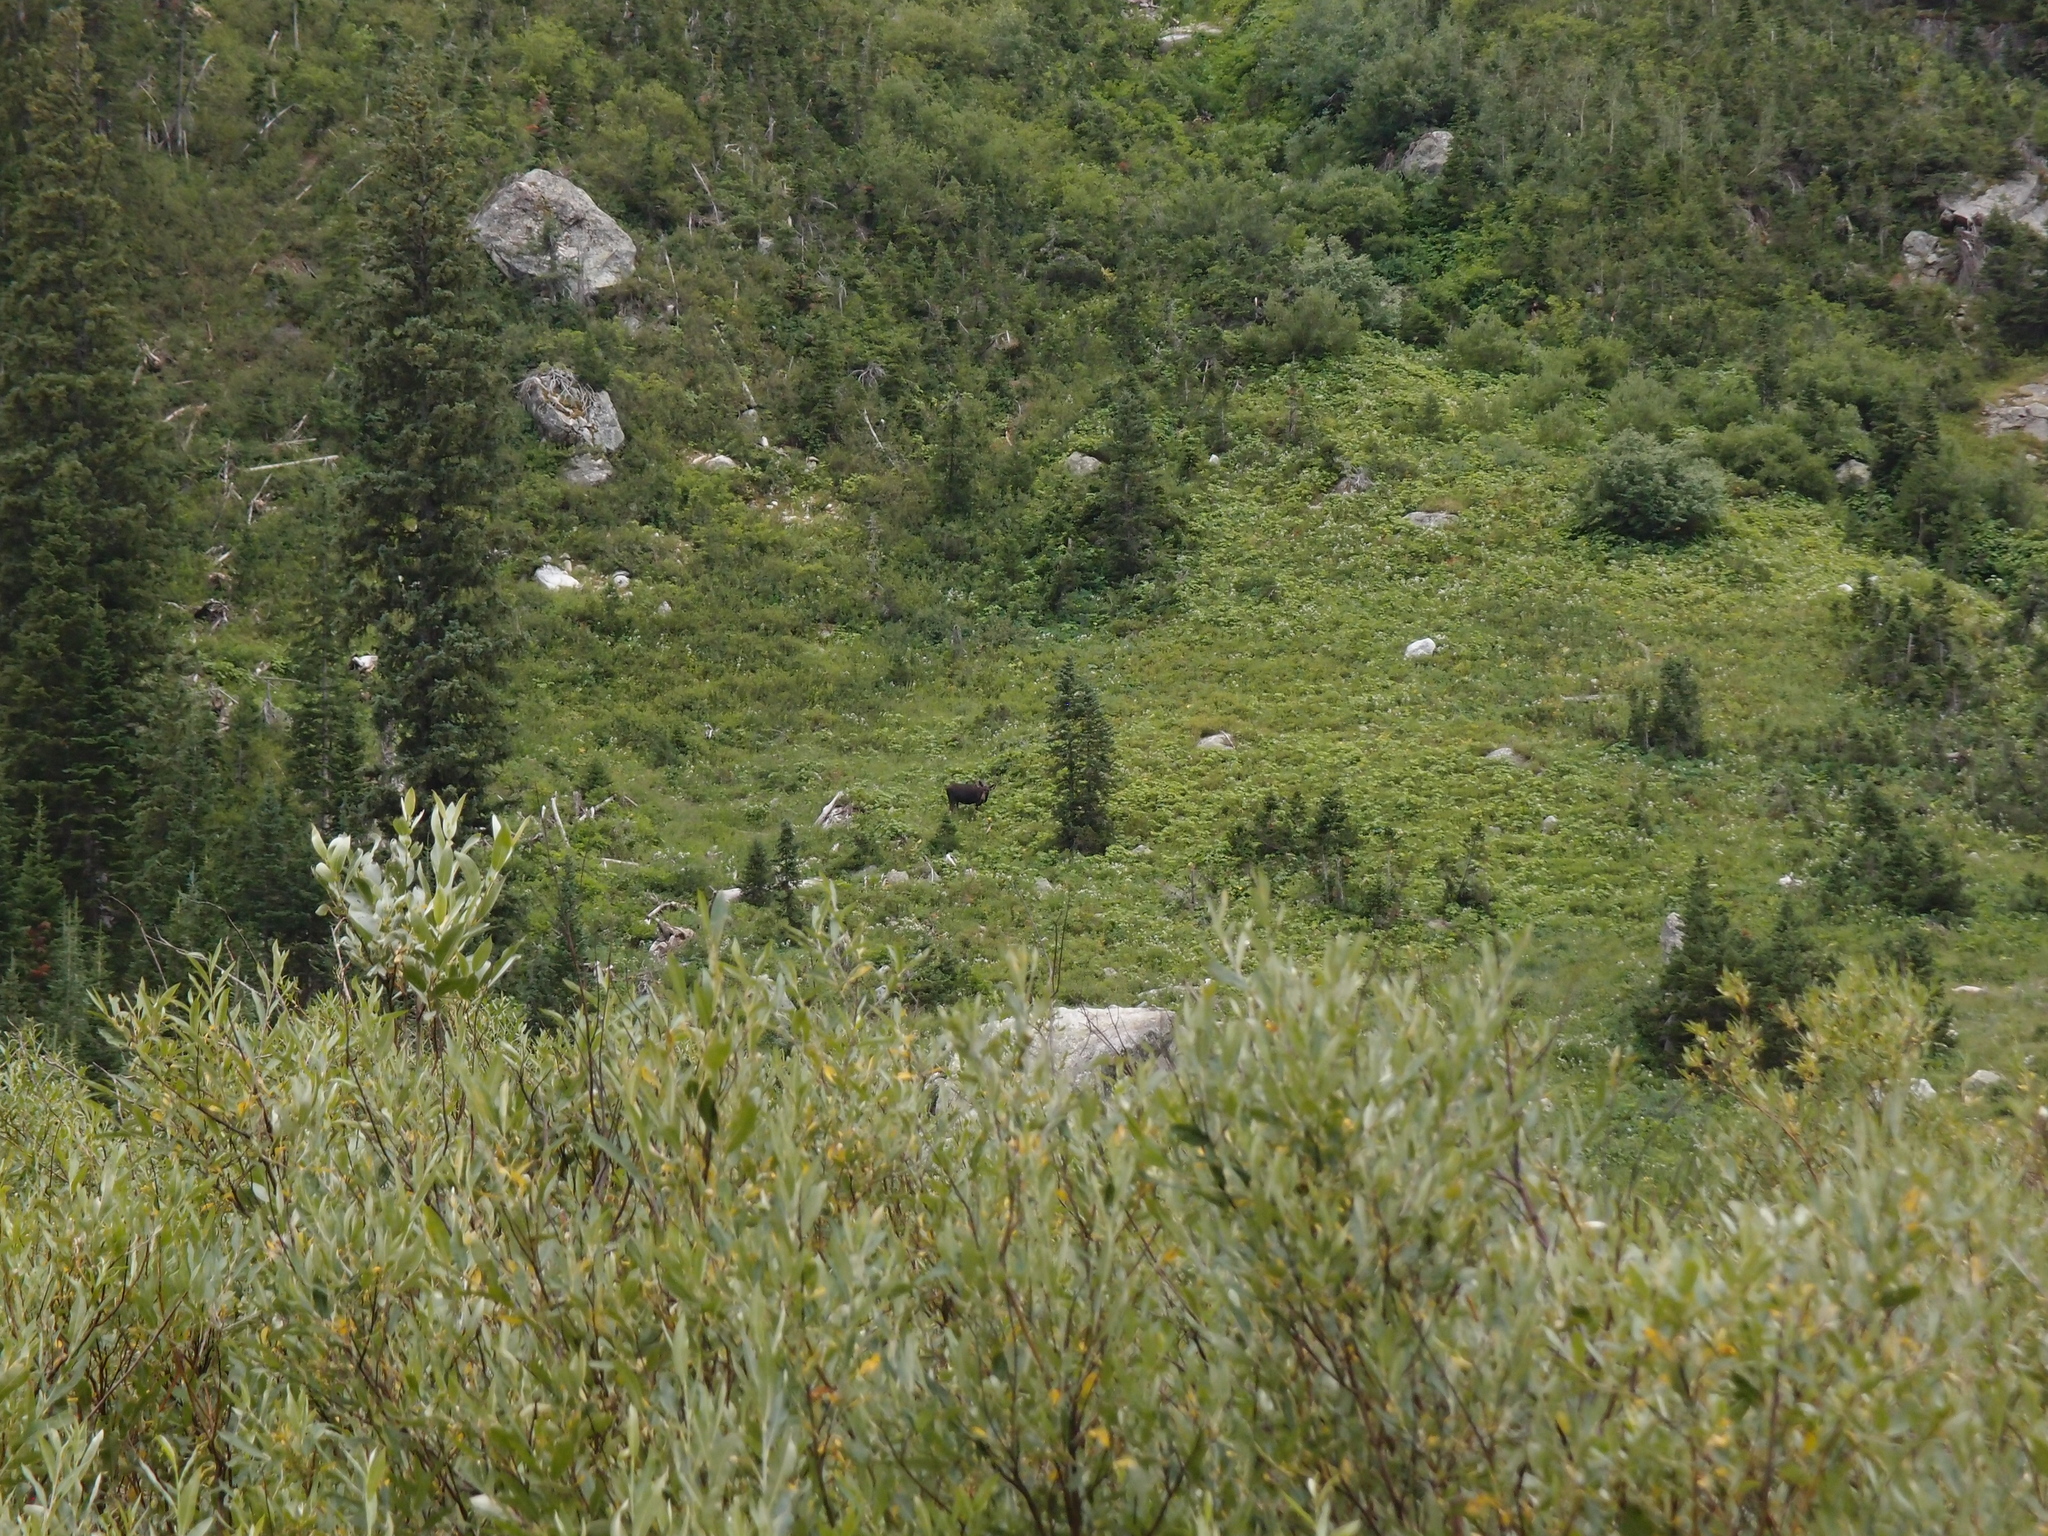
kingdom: Animalia
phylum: Chordata
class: Mammalia
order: Artiodactyla
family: Cervidae
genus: Alces
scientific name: Alces alces
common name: Moose
